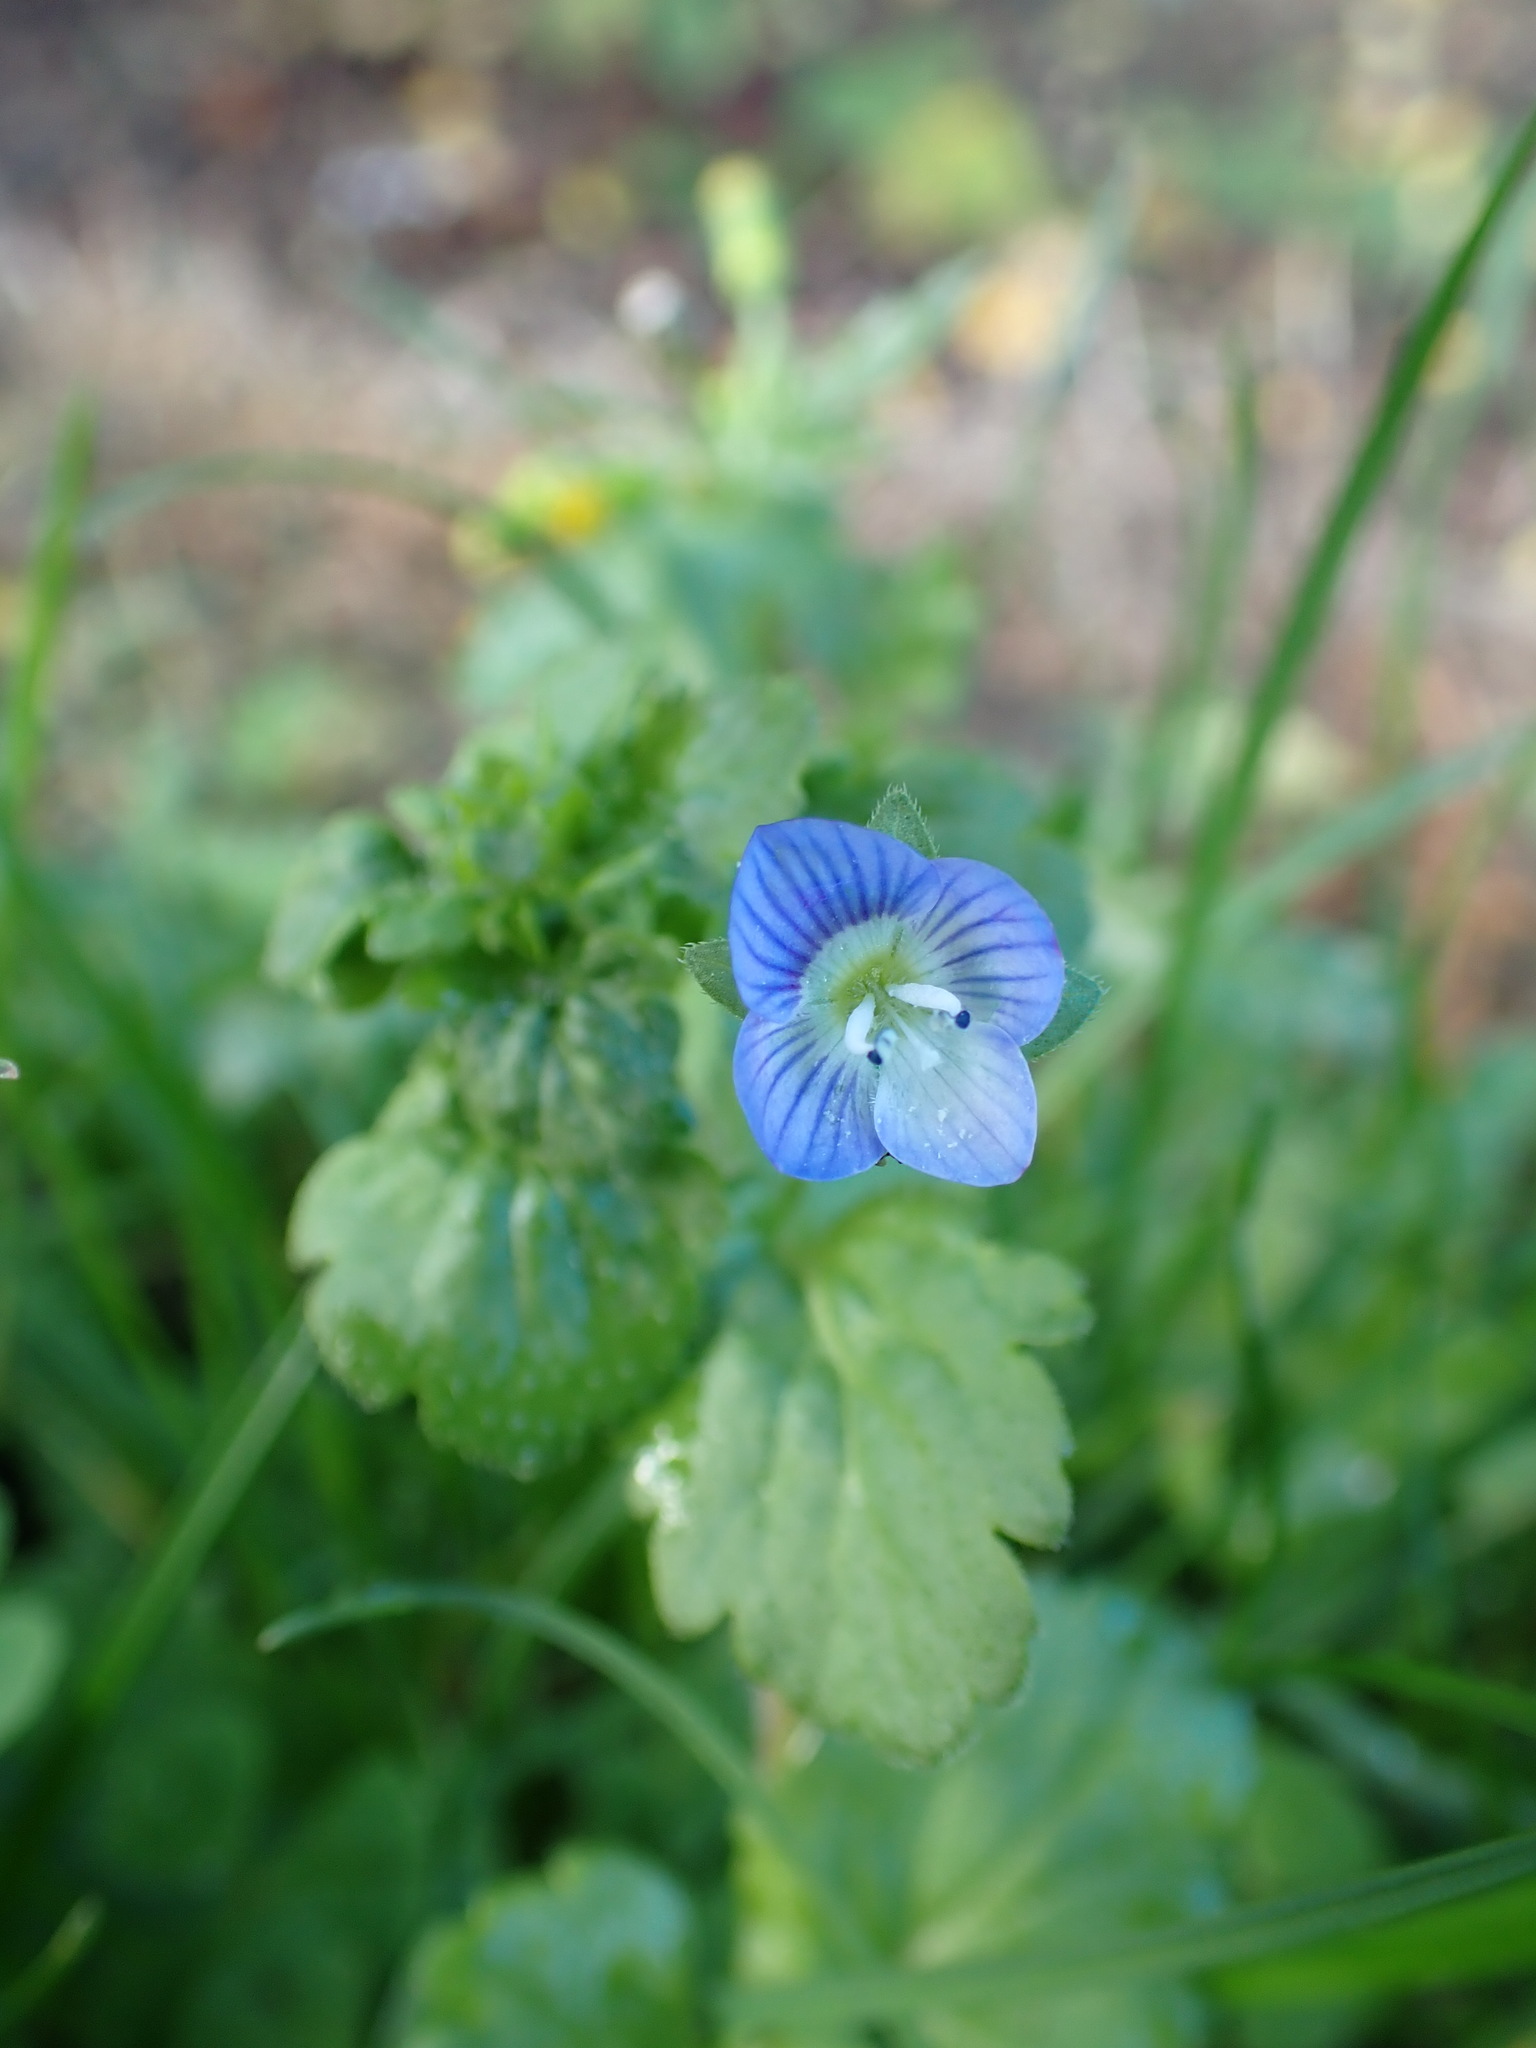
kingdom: Plantae
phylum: Tracheophyta
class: Magnoliopsida
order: Lamiales
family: Plantaginaceae
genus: Veronica
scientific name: Veronica persica
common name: Common field-speedwell
